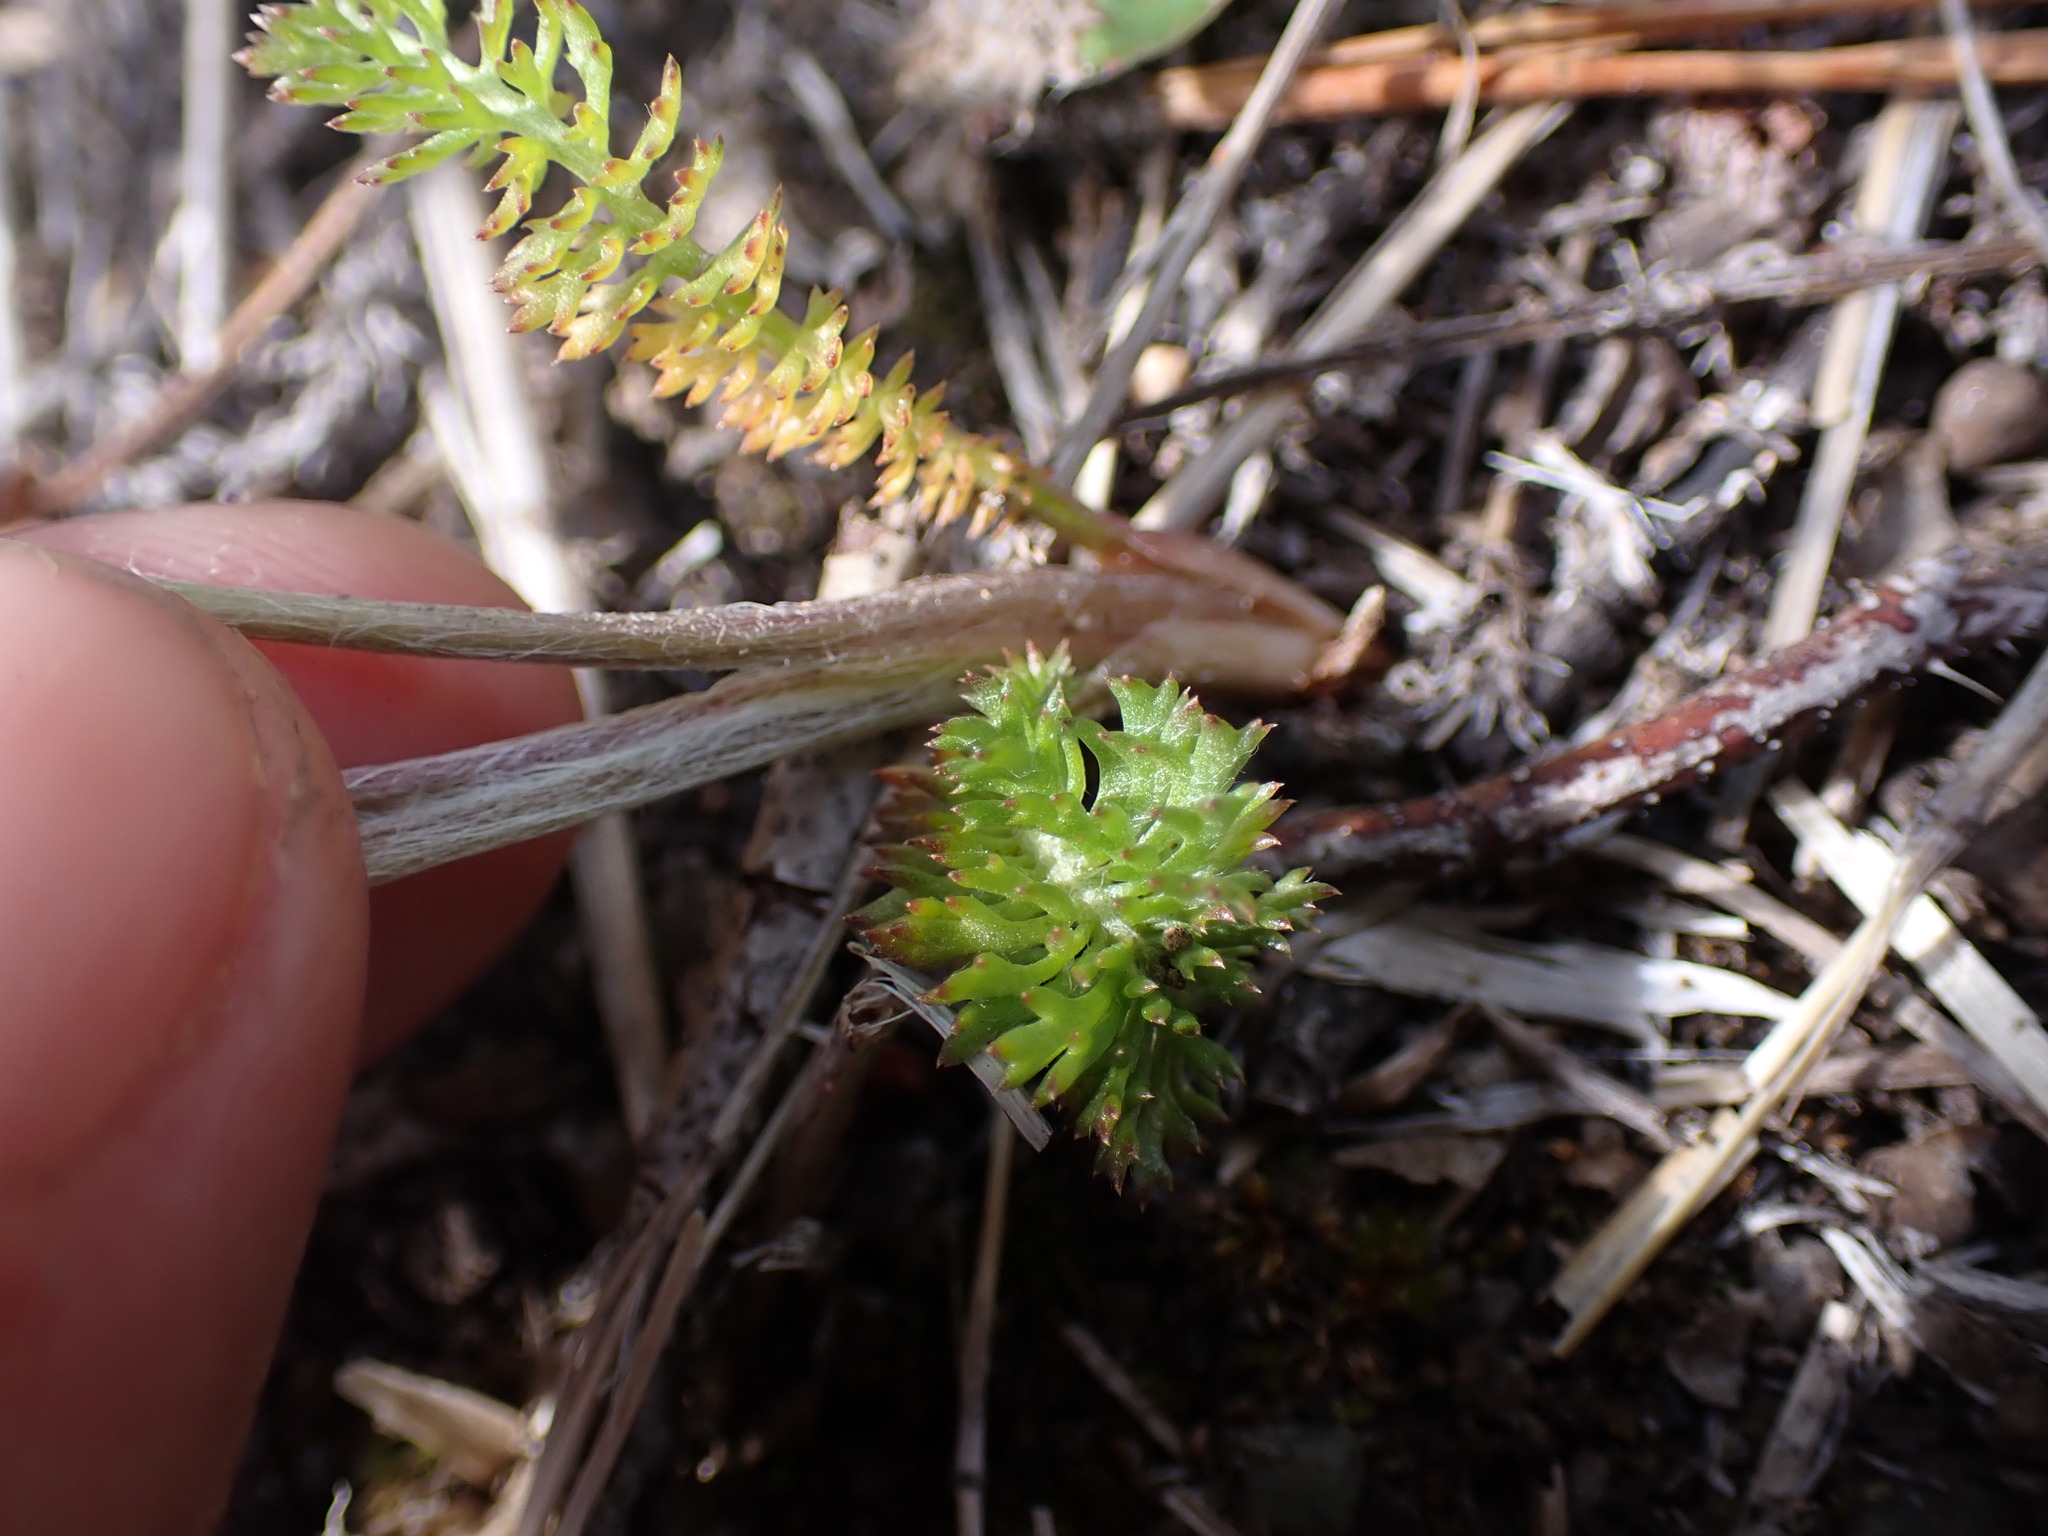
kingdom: Plantae
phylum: Tracheophyta
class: Magnoliopsida
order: Asterales
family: Asteraceae
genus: Achillea
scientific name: Achillea millefolium
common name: Yarrow
